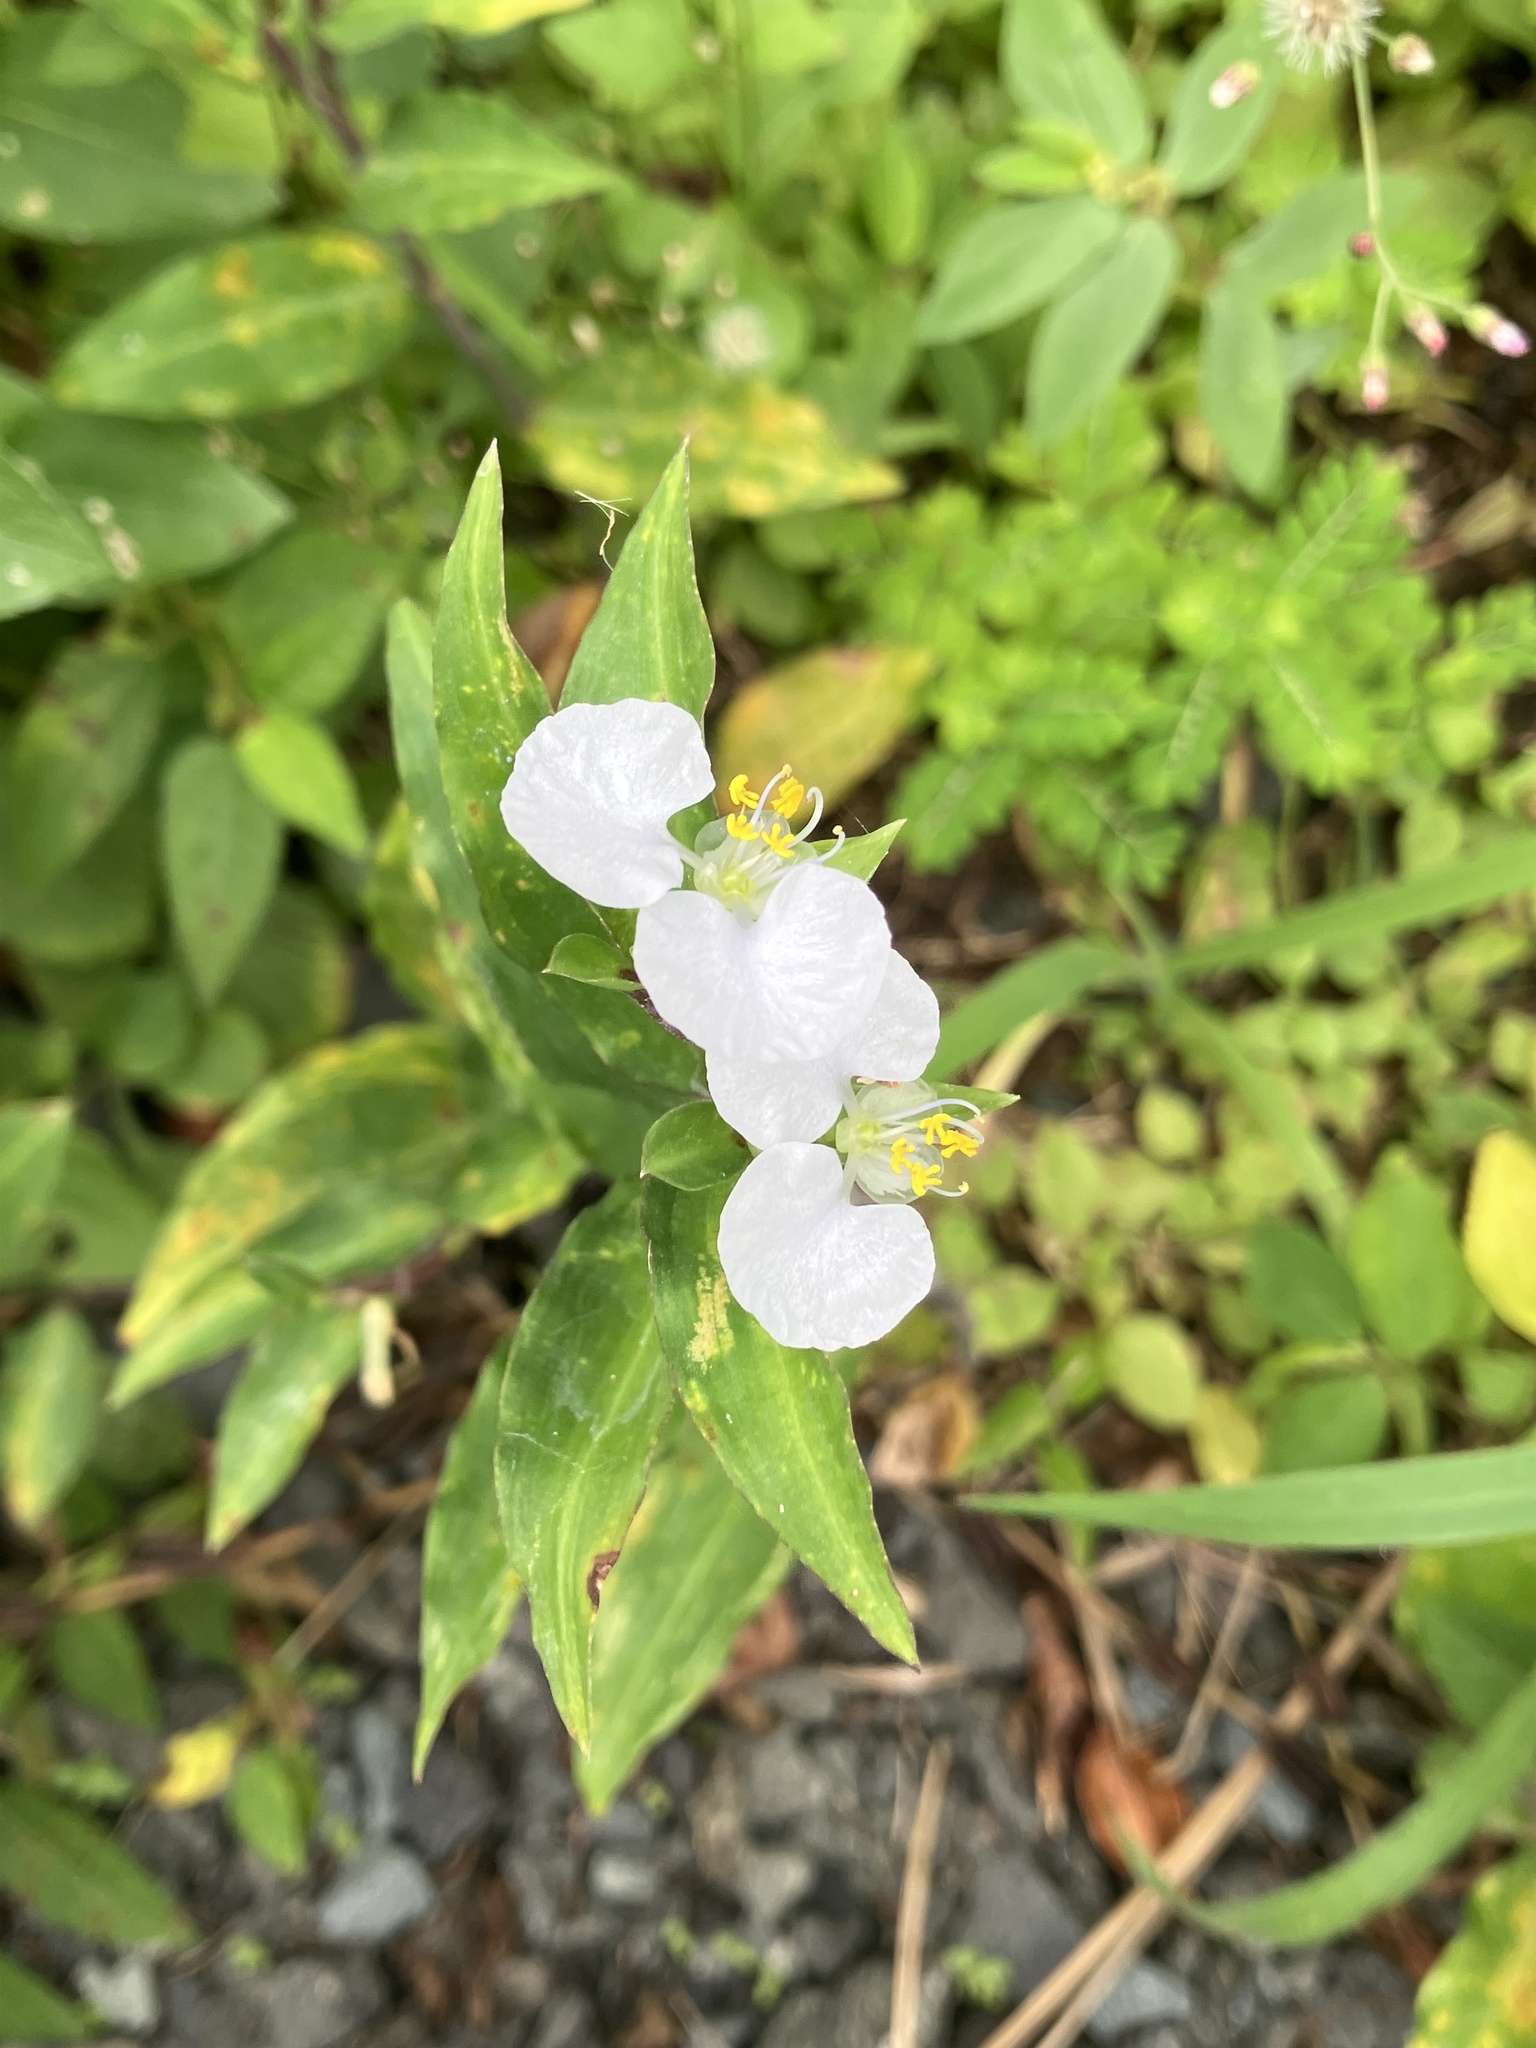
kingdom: Plantae
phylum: Tracheophyta
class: Liliopsida
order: Commelinales
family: Commelinaceae
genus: Commelina
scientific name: Commelina erecta
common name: Blousel blommetjie
